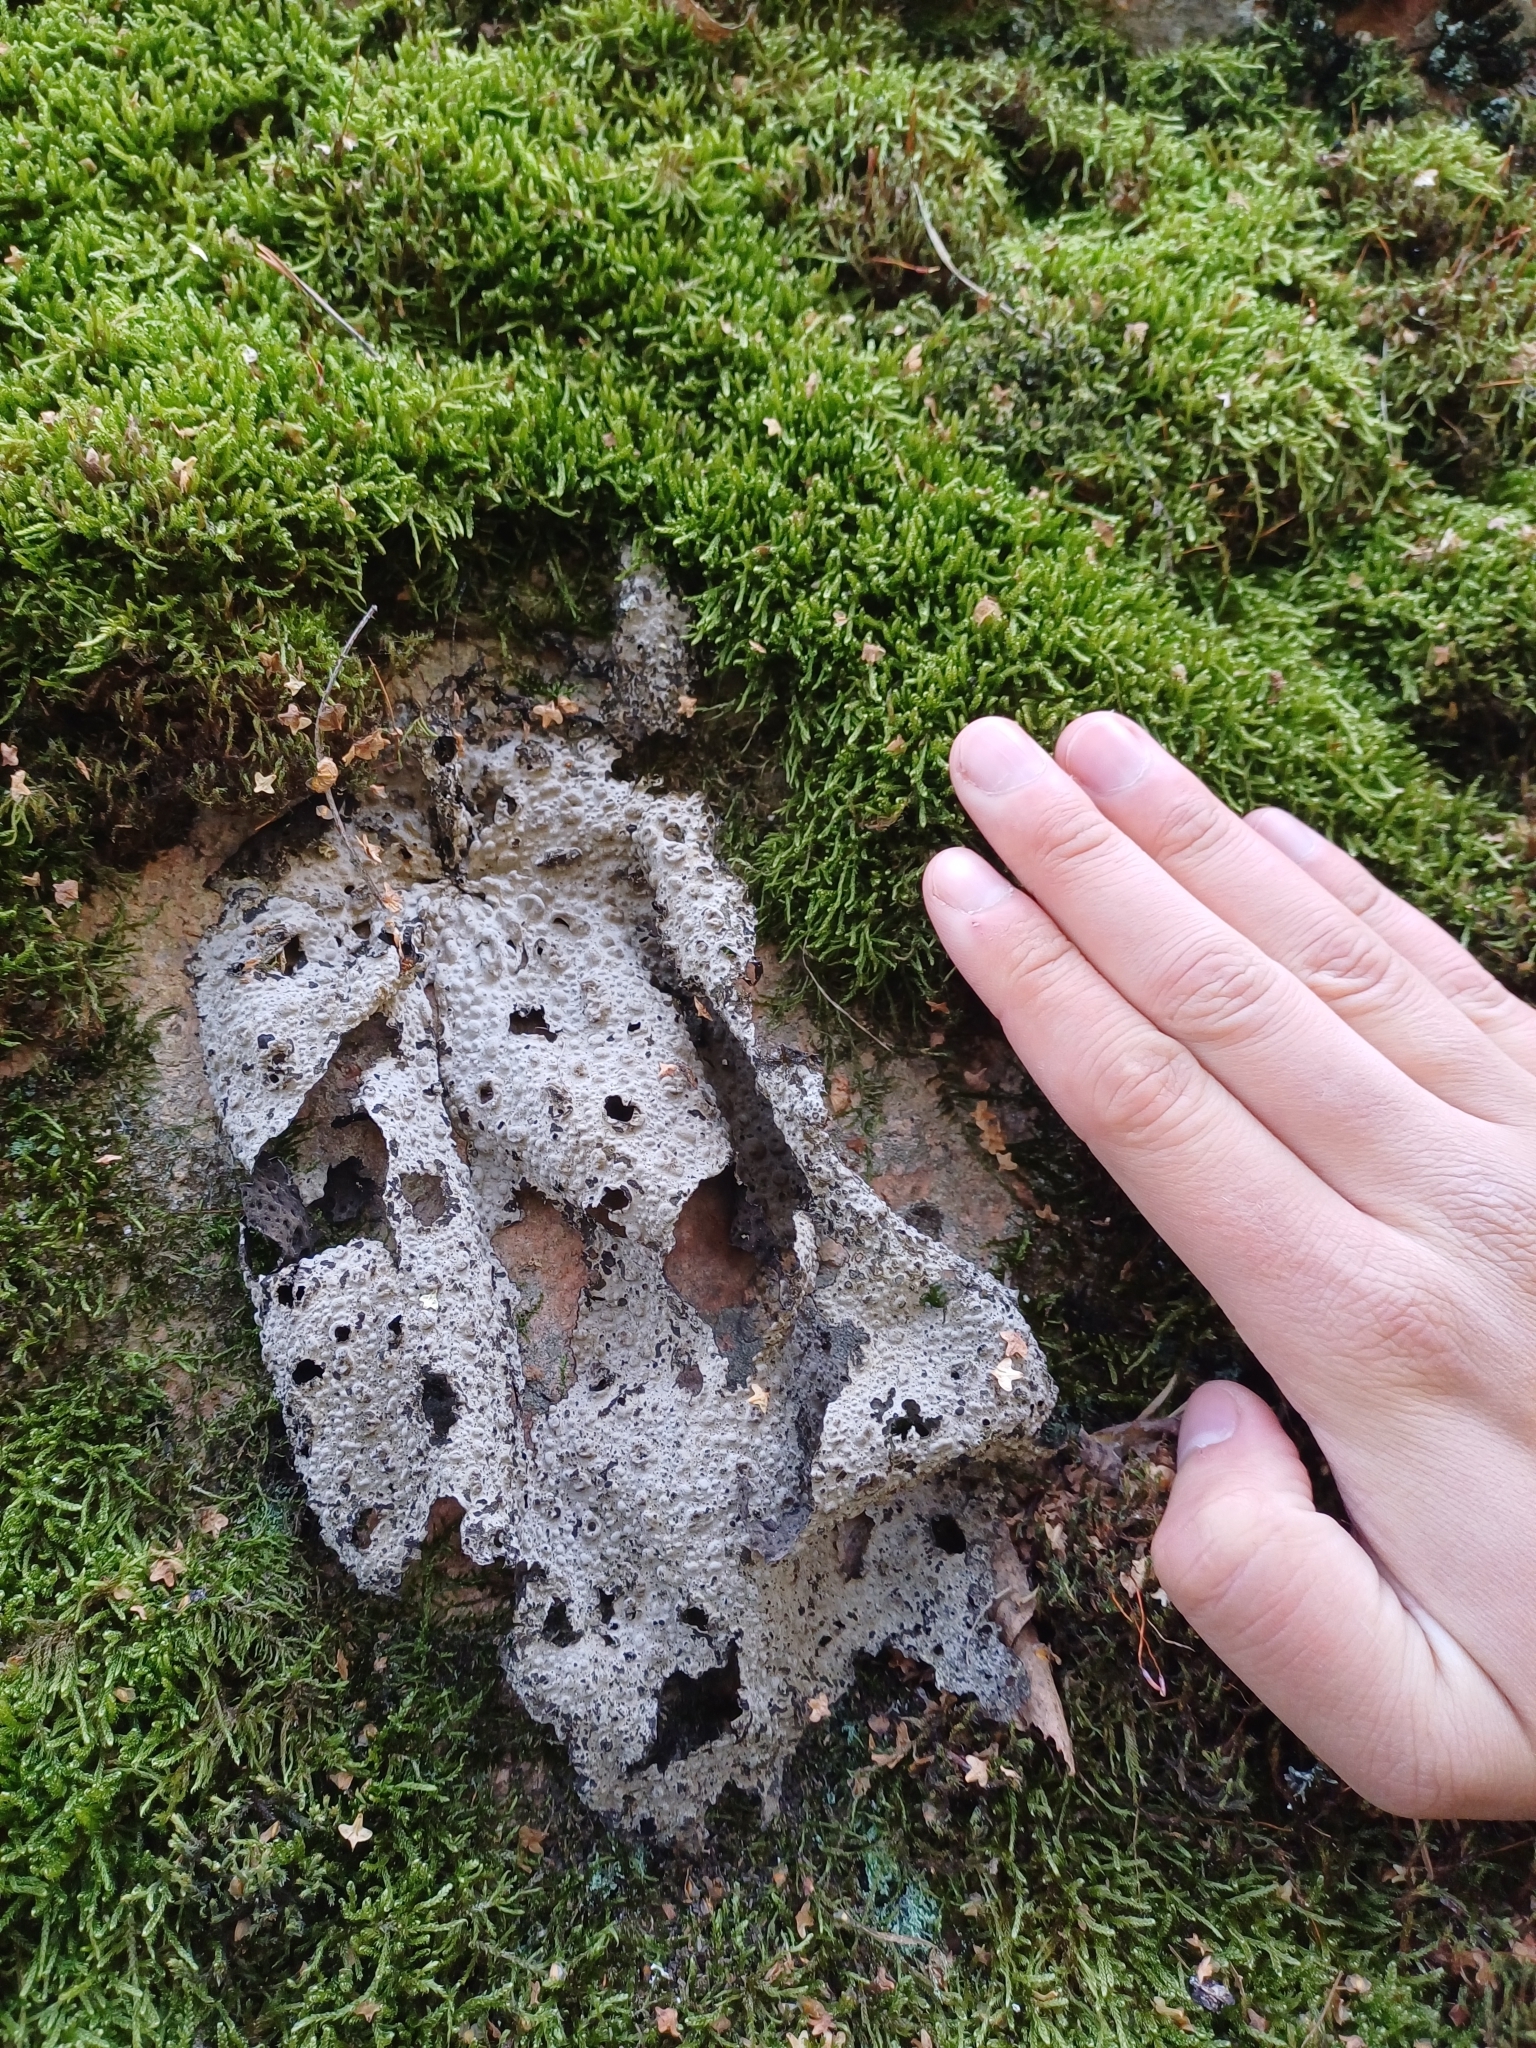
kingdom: Fungi
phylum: Ascomycota
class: Lecanoromycetes
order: Umbilicariales
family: Umbilicariaceae
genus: Lasallia
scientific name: Lasallia pustulata
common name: Blistered toadskin lichen
